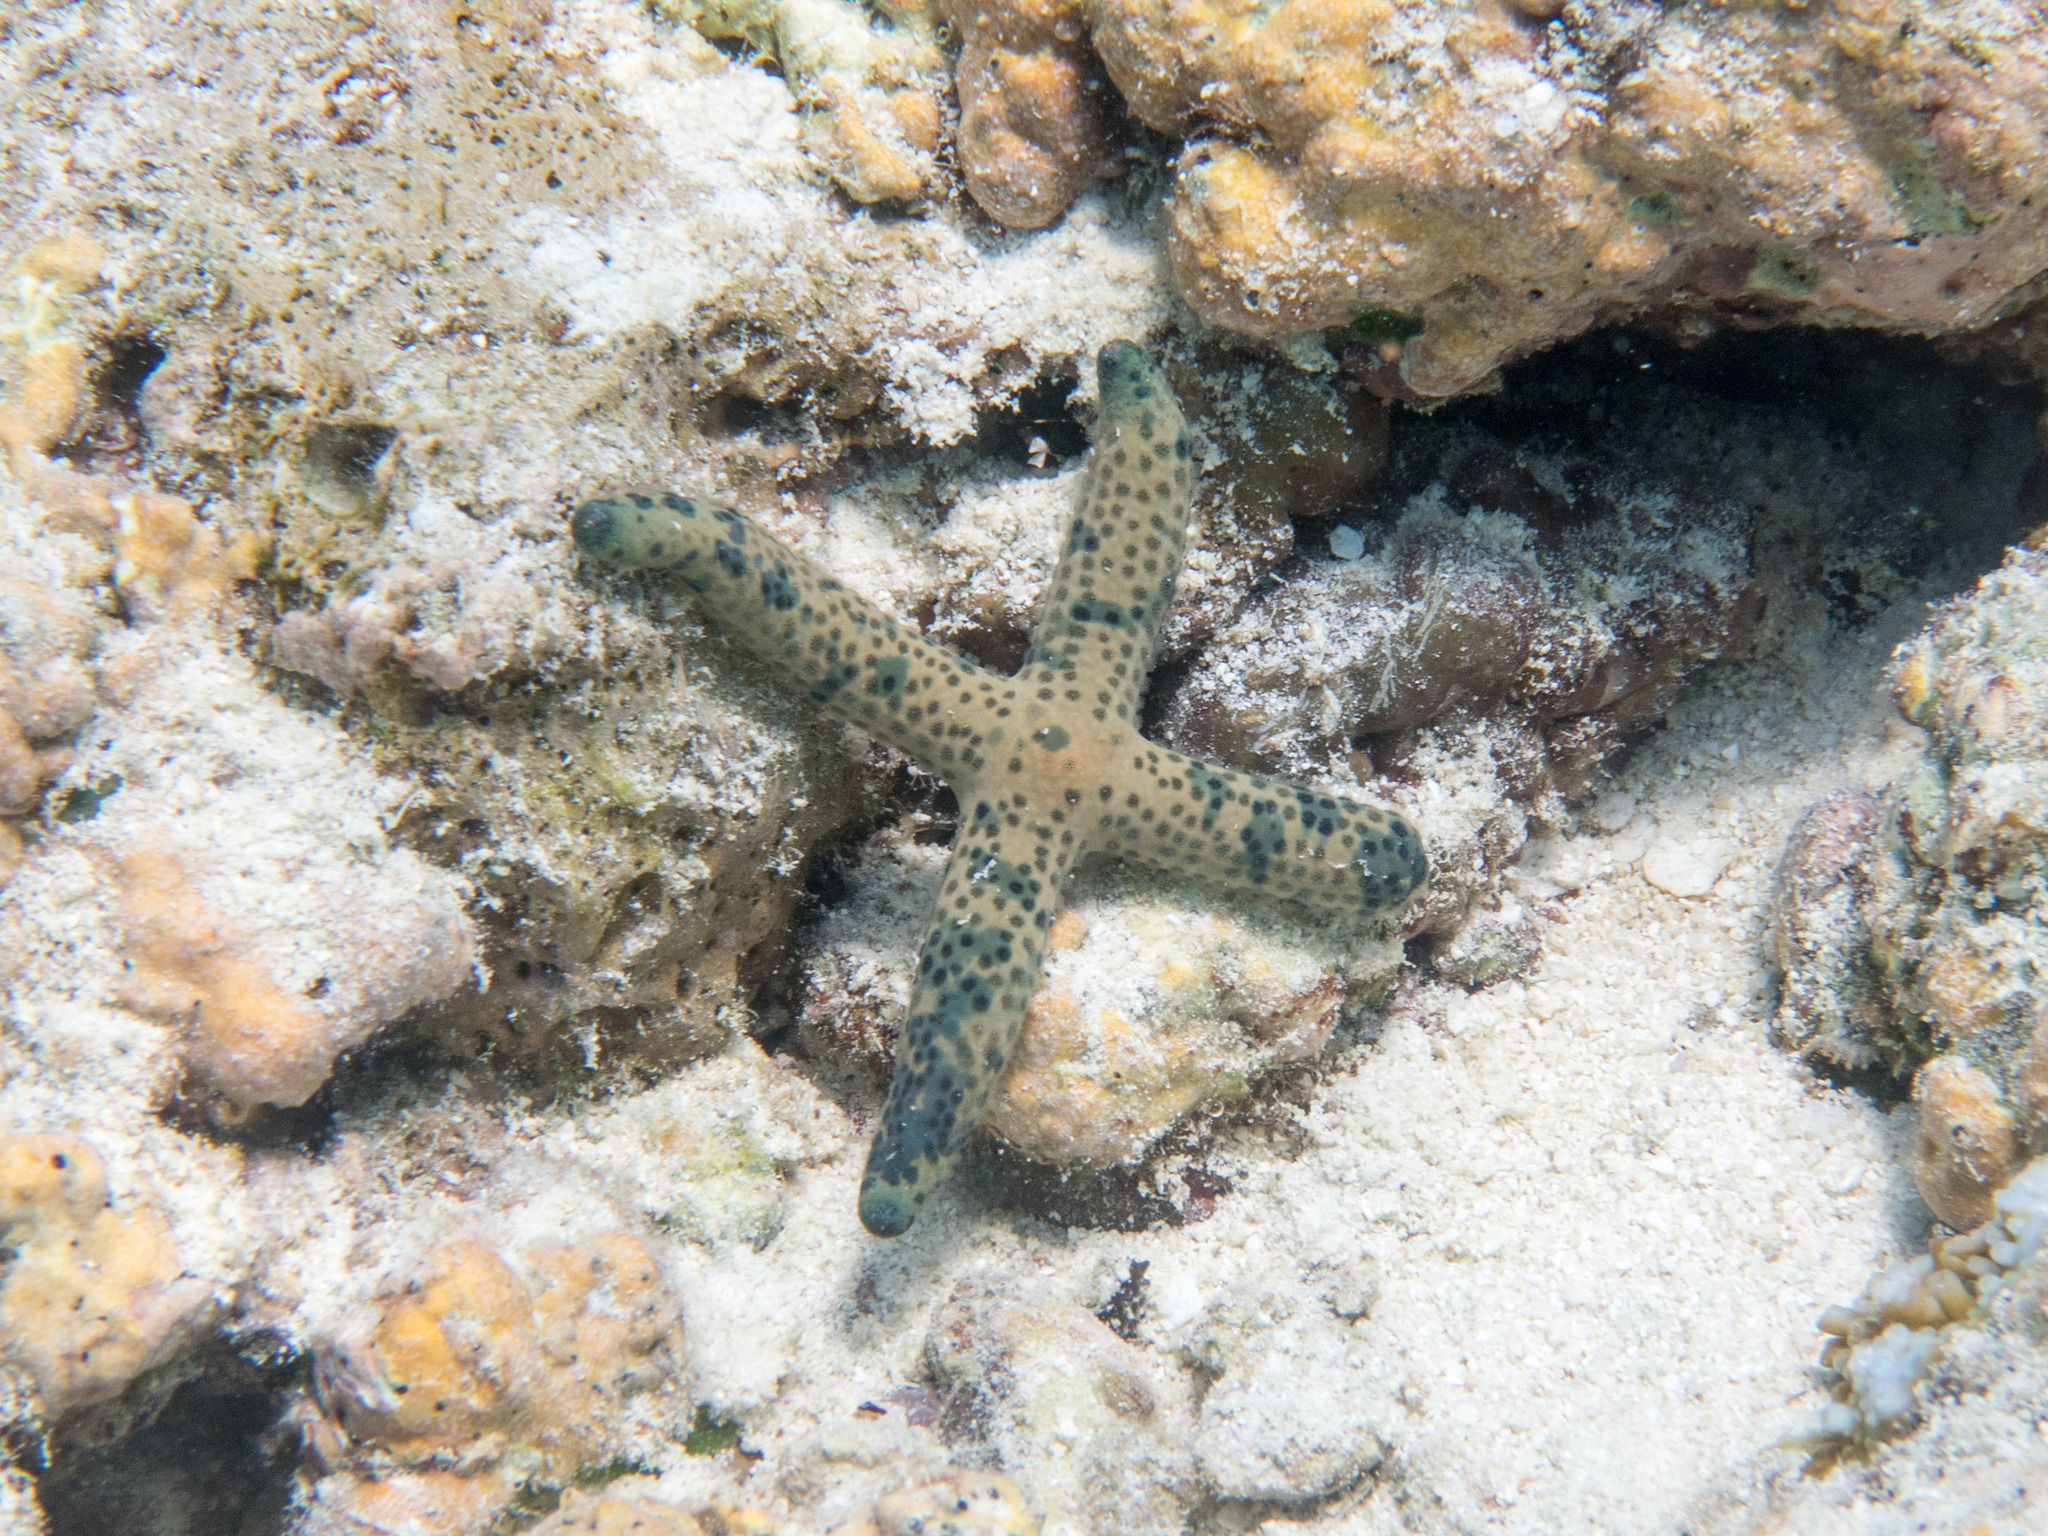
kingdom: Animalia
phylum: Echinodermata
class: Asteroidea
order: Valvatida
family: Ophidiasteridae
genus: Linckia
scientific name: Linckia multifora
